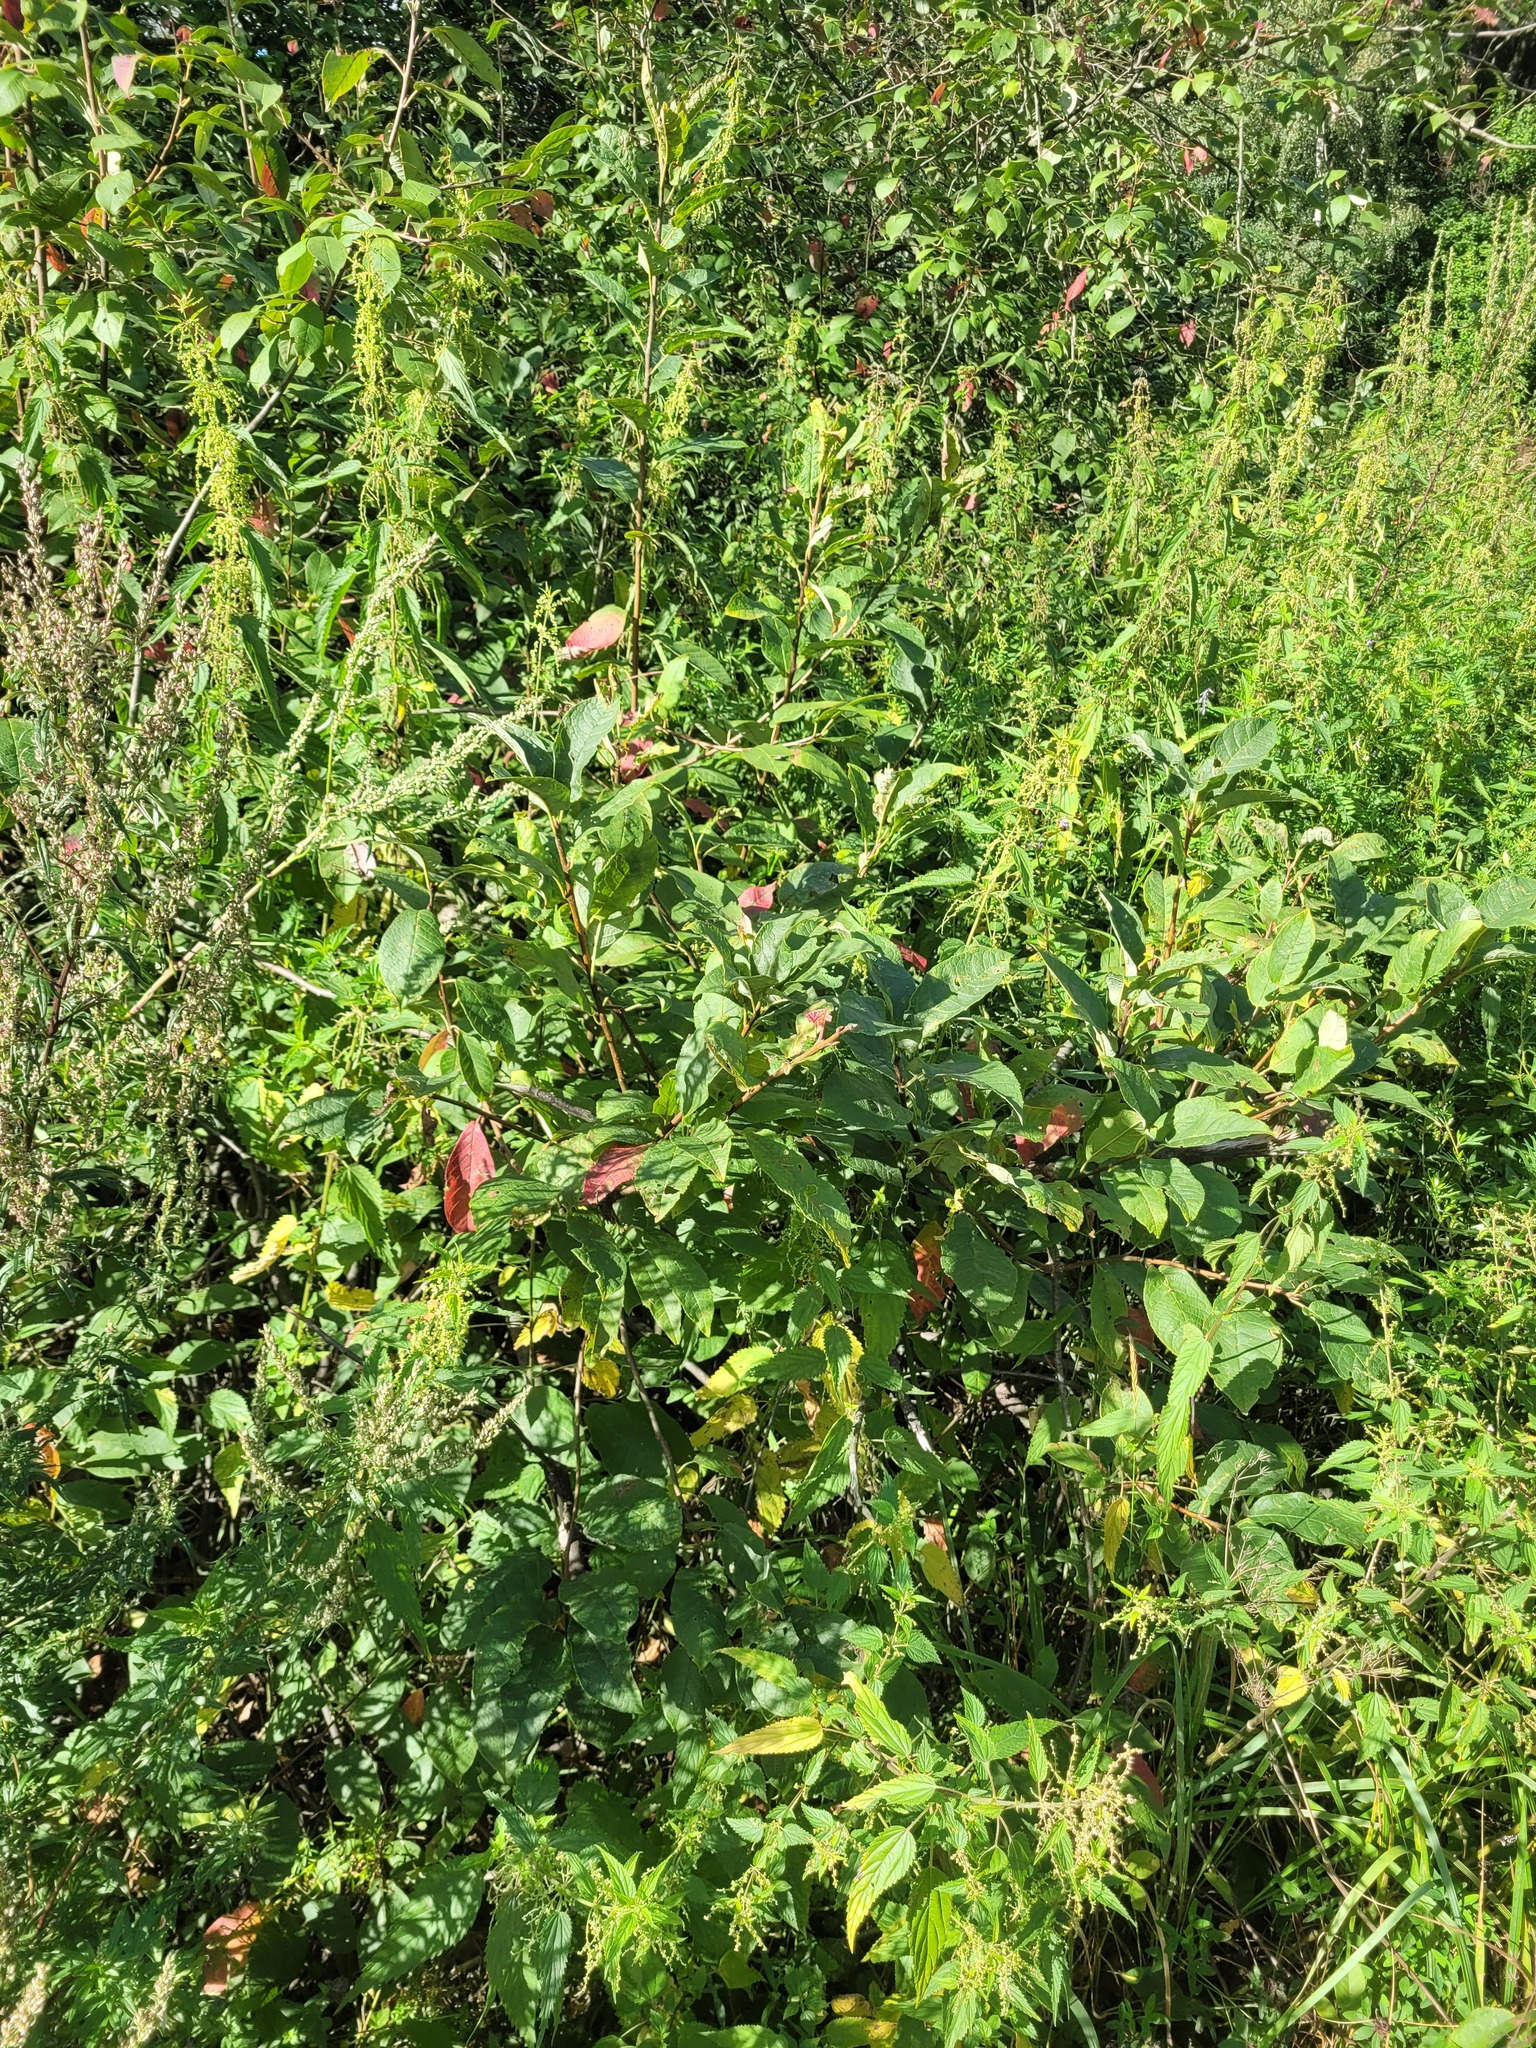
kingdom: Plantae
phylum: Tracheophyta
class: Magnoliopsida
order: Rosales
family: Rosaceae
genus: Prunus
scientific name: Prunus padus
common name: Bird cherry
